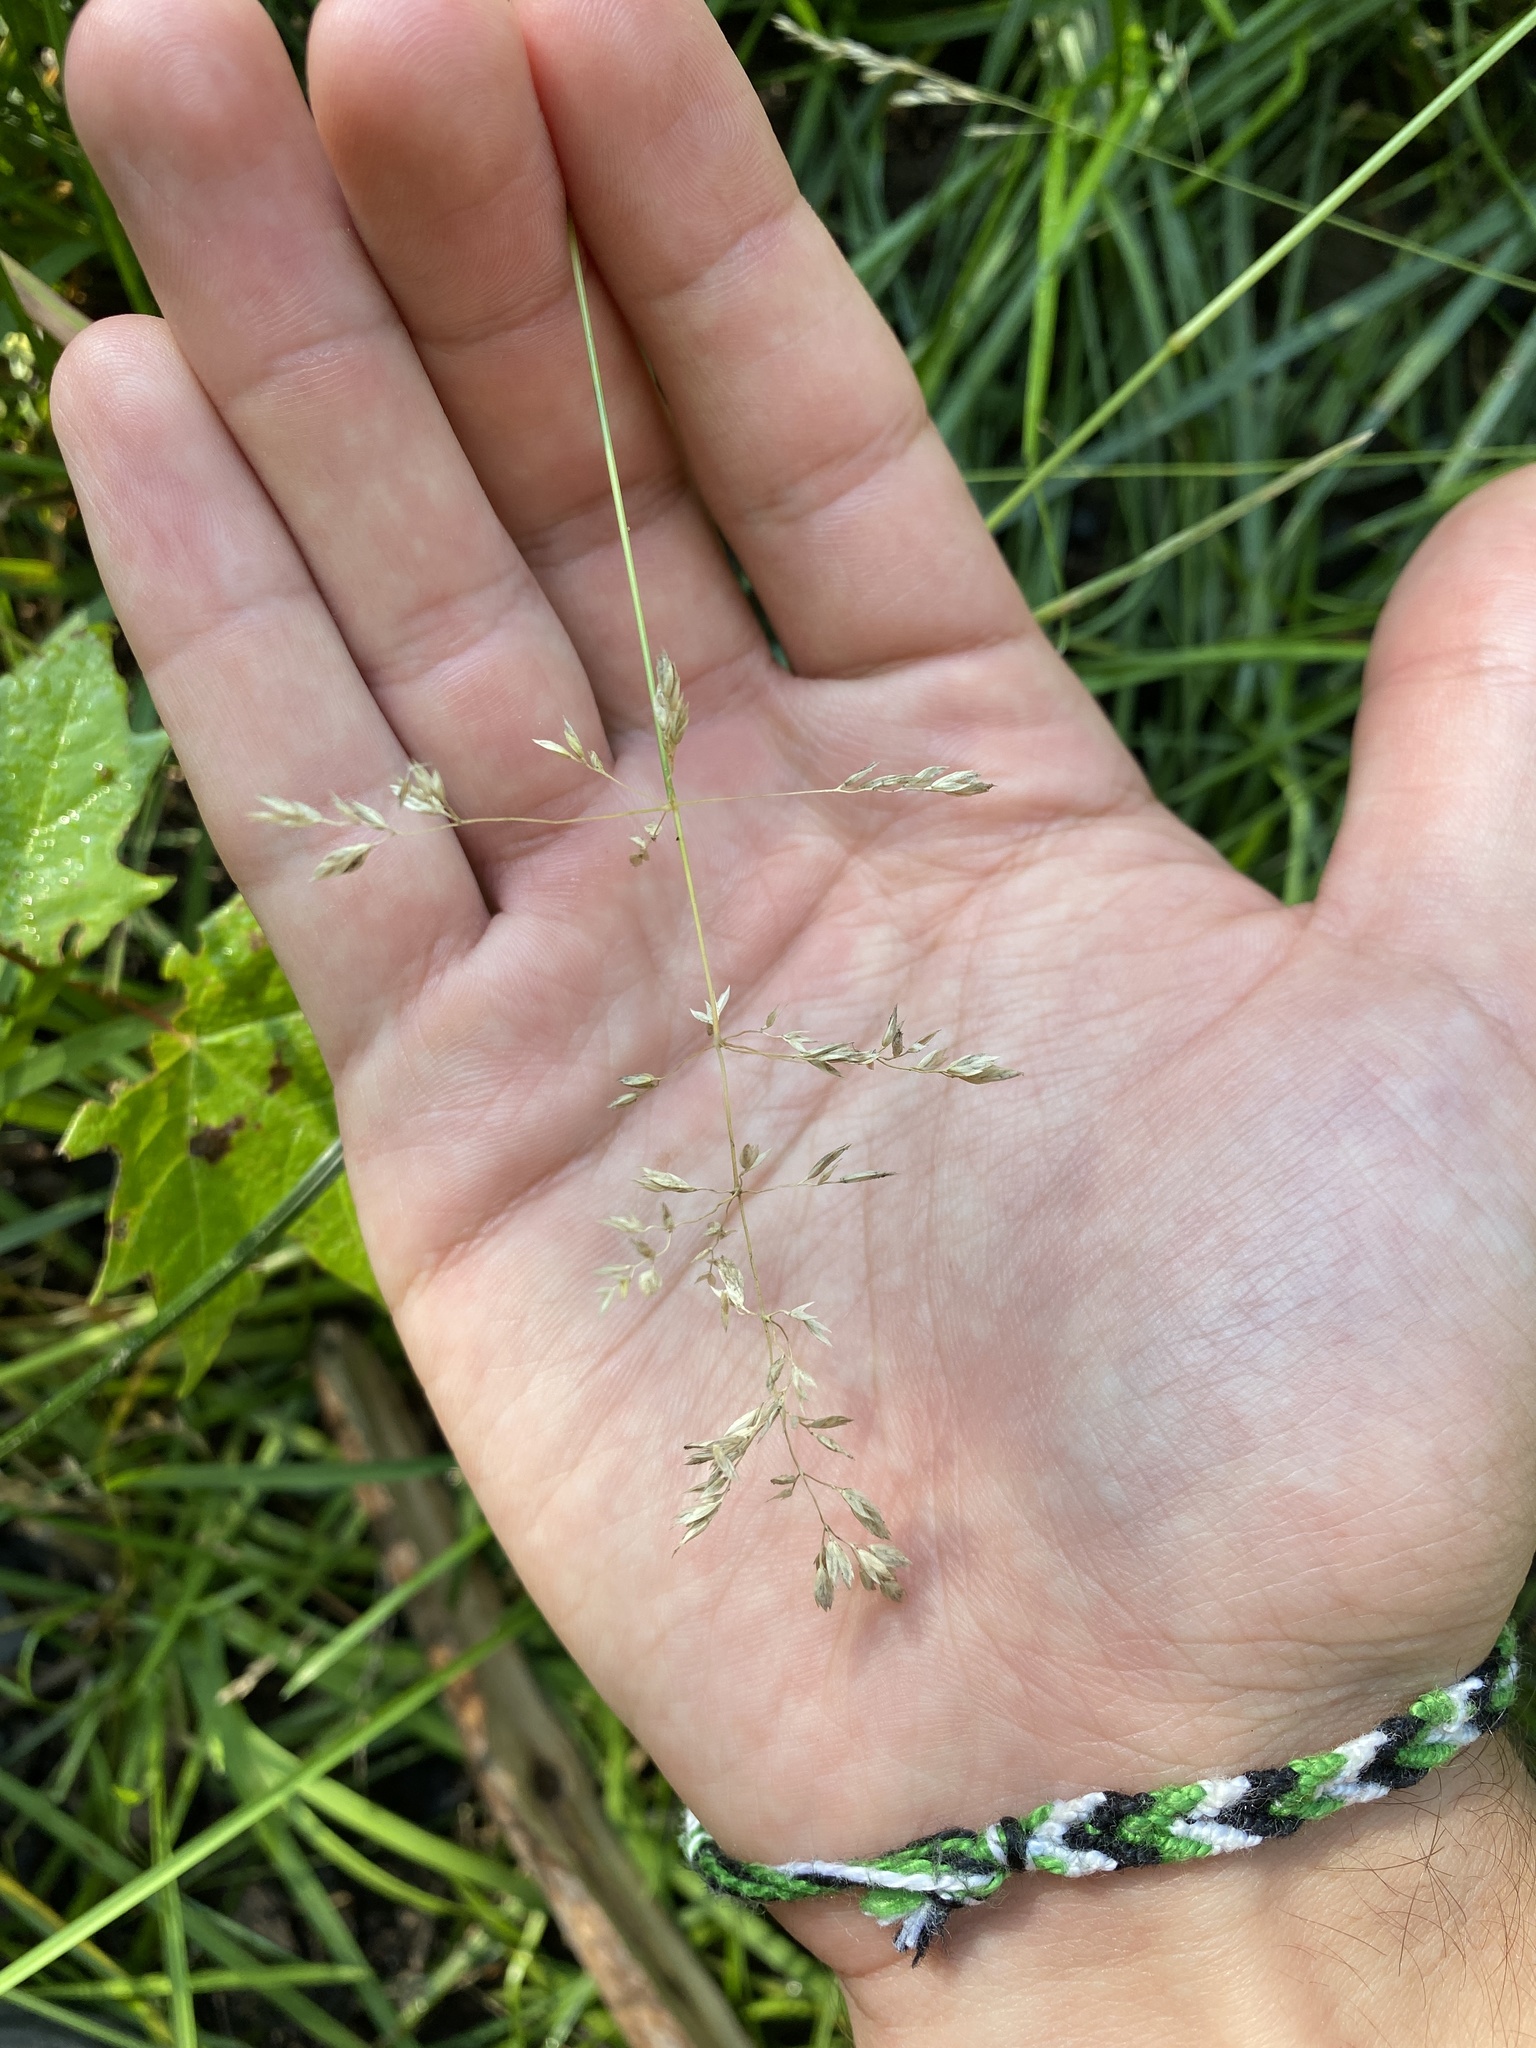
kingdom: Plantae
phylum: Tracheophyta
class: Liliopsida
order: Poales
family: Poaceae
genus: Poa
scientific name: Poa pratensis
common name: Kentucky bluegrass
